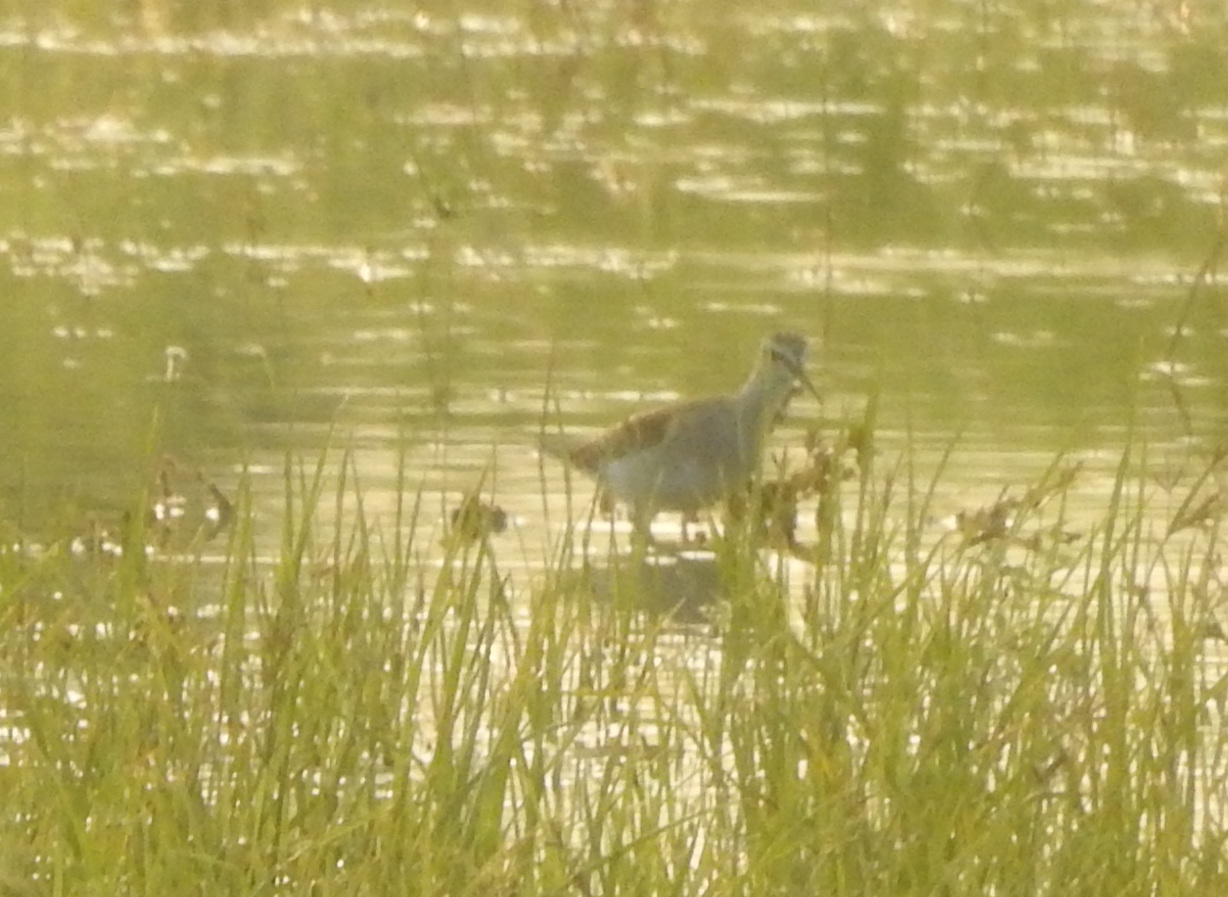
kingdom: Animalia
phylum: Chordata
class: Aves
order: Charadriiformes
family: Scolopacidae
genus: Tringa
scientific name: Tringa glareola
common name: Wood sandpiper
